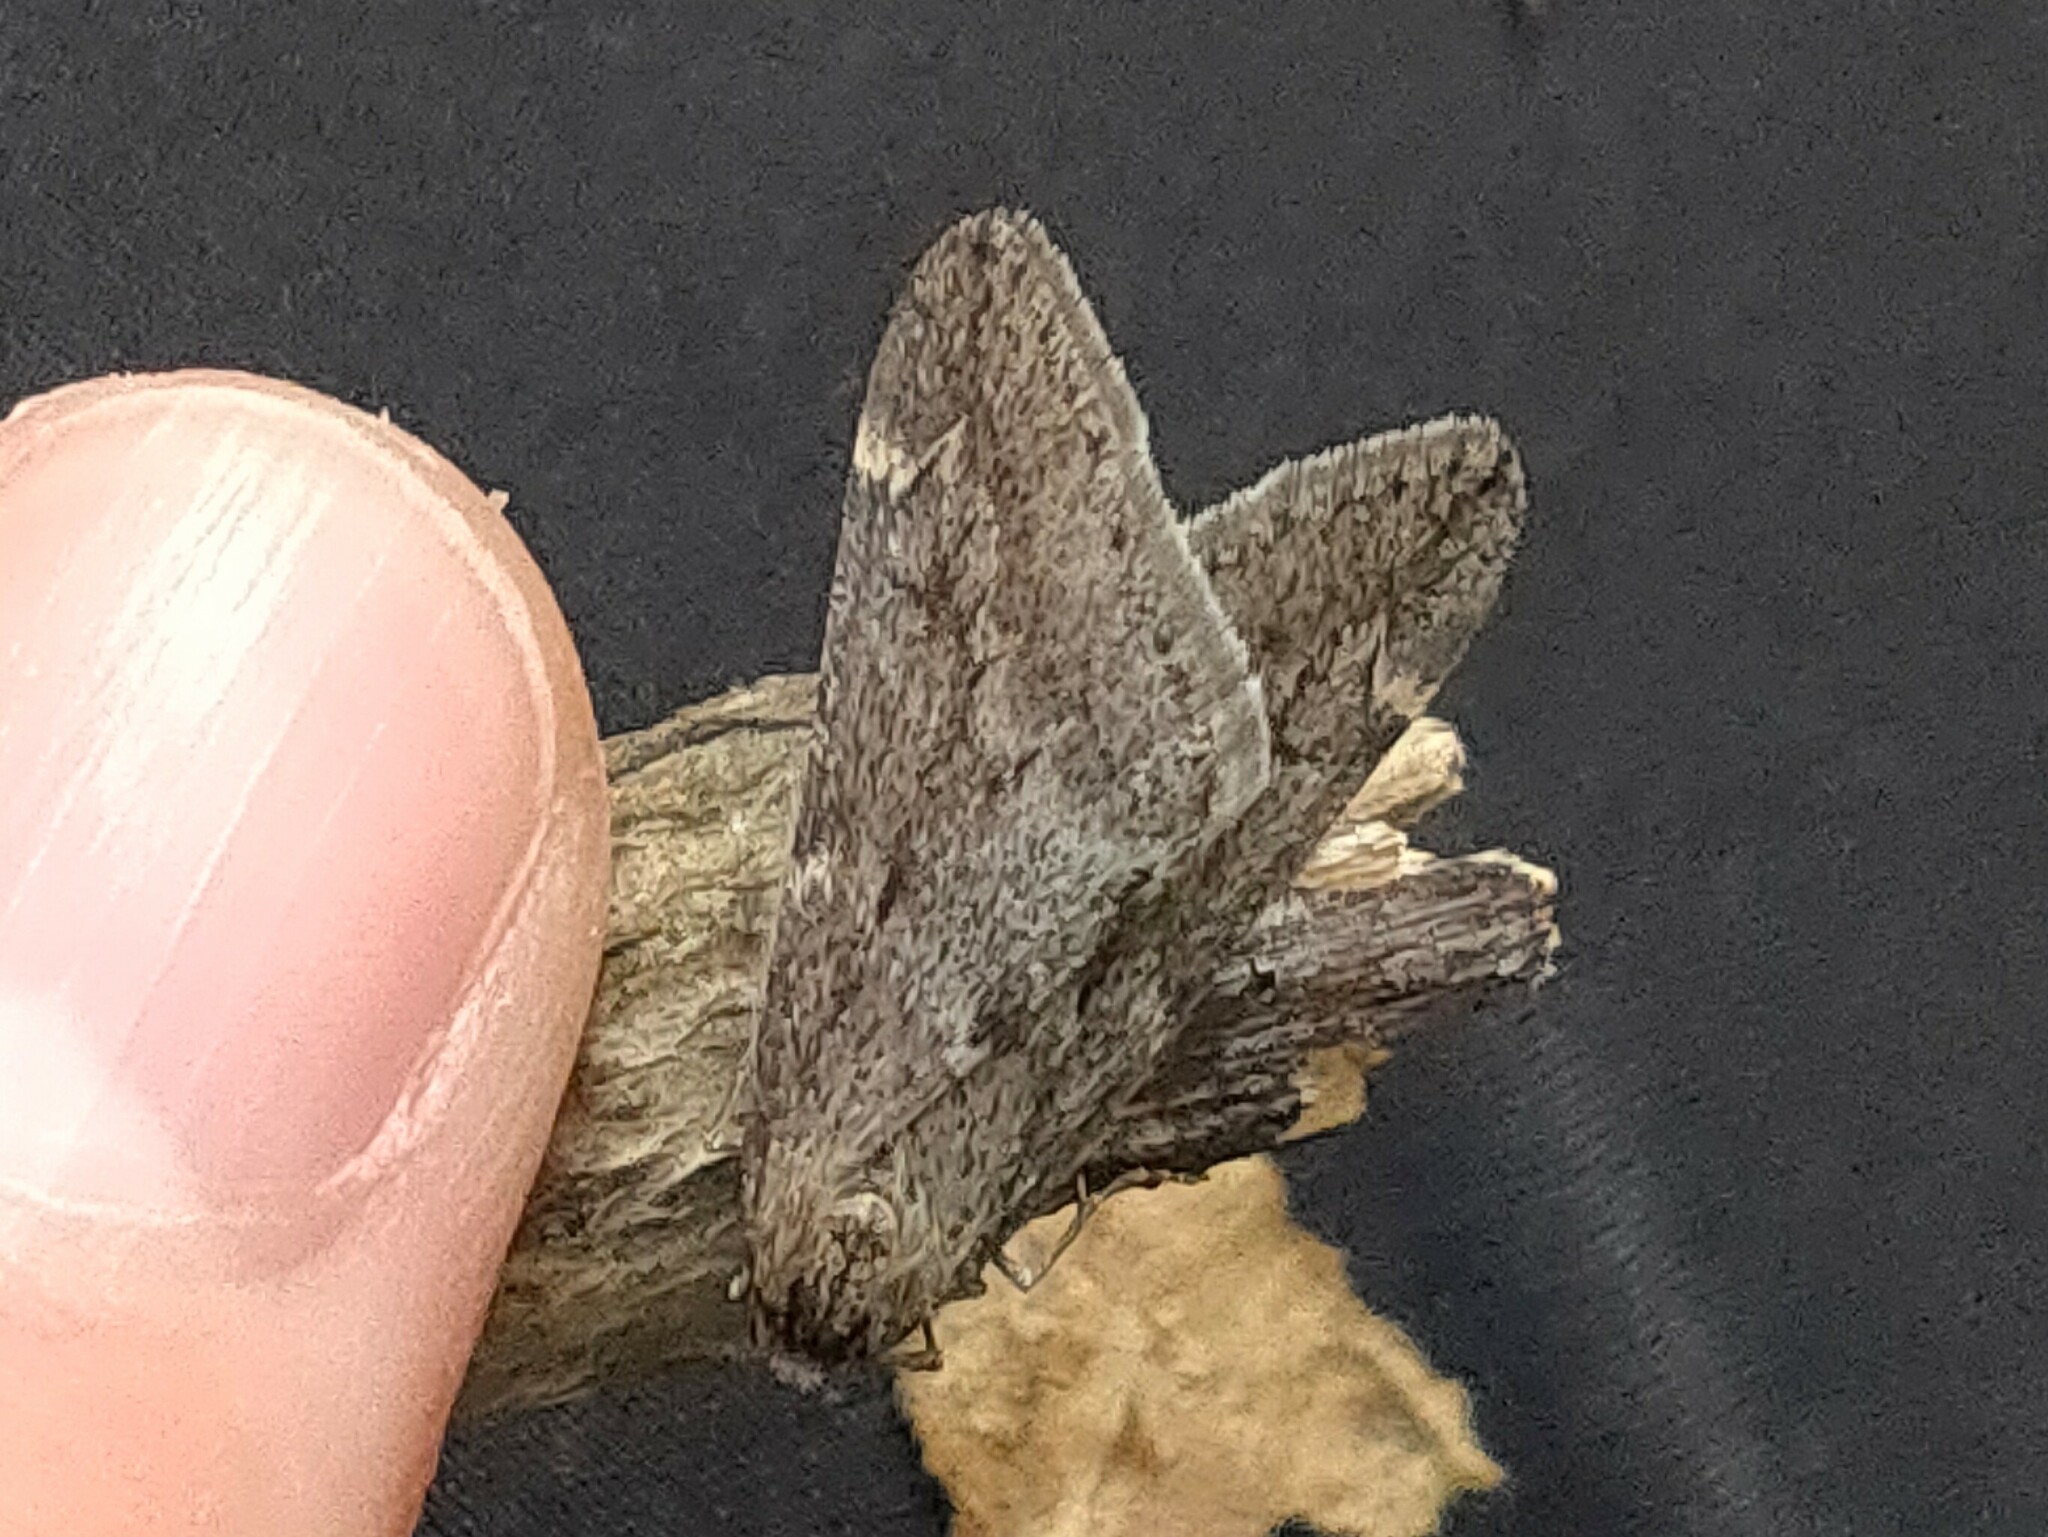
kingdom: Animalia
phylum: Arthropoda
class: Insecta
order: Lepidoptera
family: Geometridae
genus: Alsophila
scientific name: Alsophila foedata
